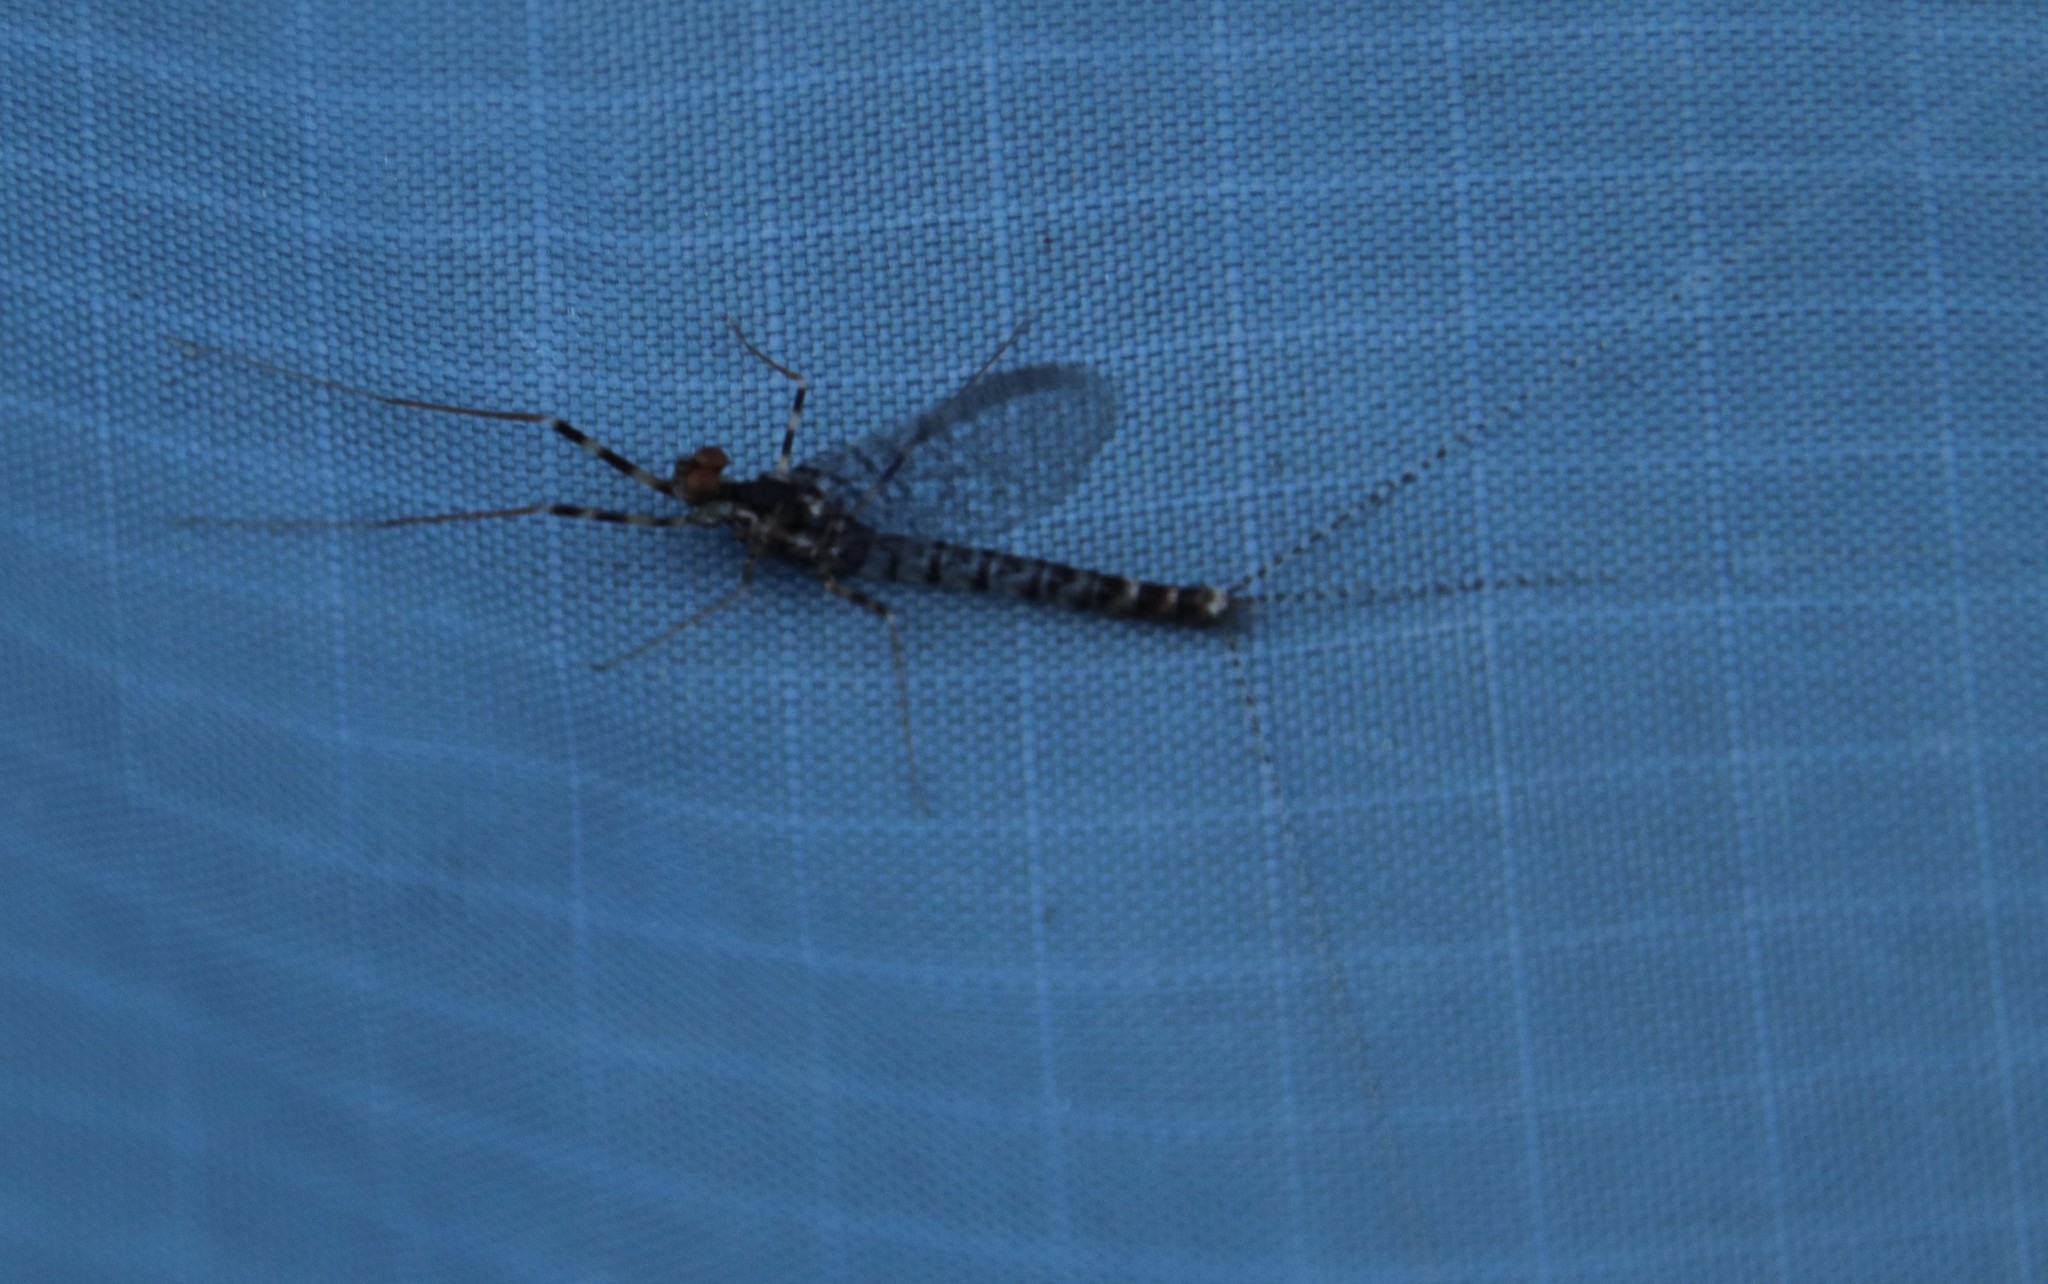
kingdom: Animalia
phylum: Arthropoda
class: Insecta
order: Ephemeroptera
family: Leptophlebiidae
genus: Aprionyx
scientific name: Aprionyx peterseni
